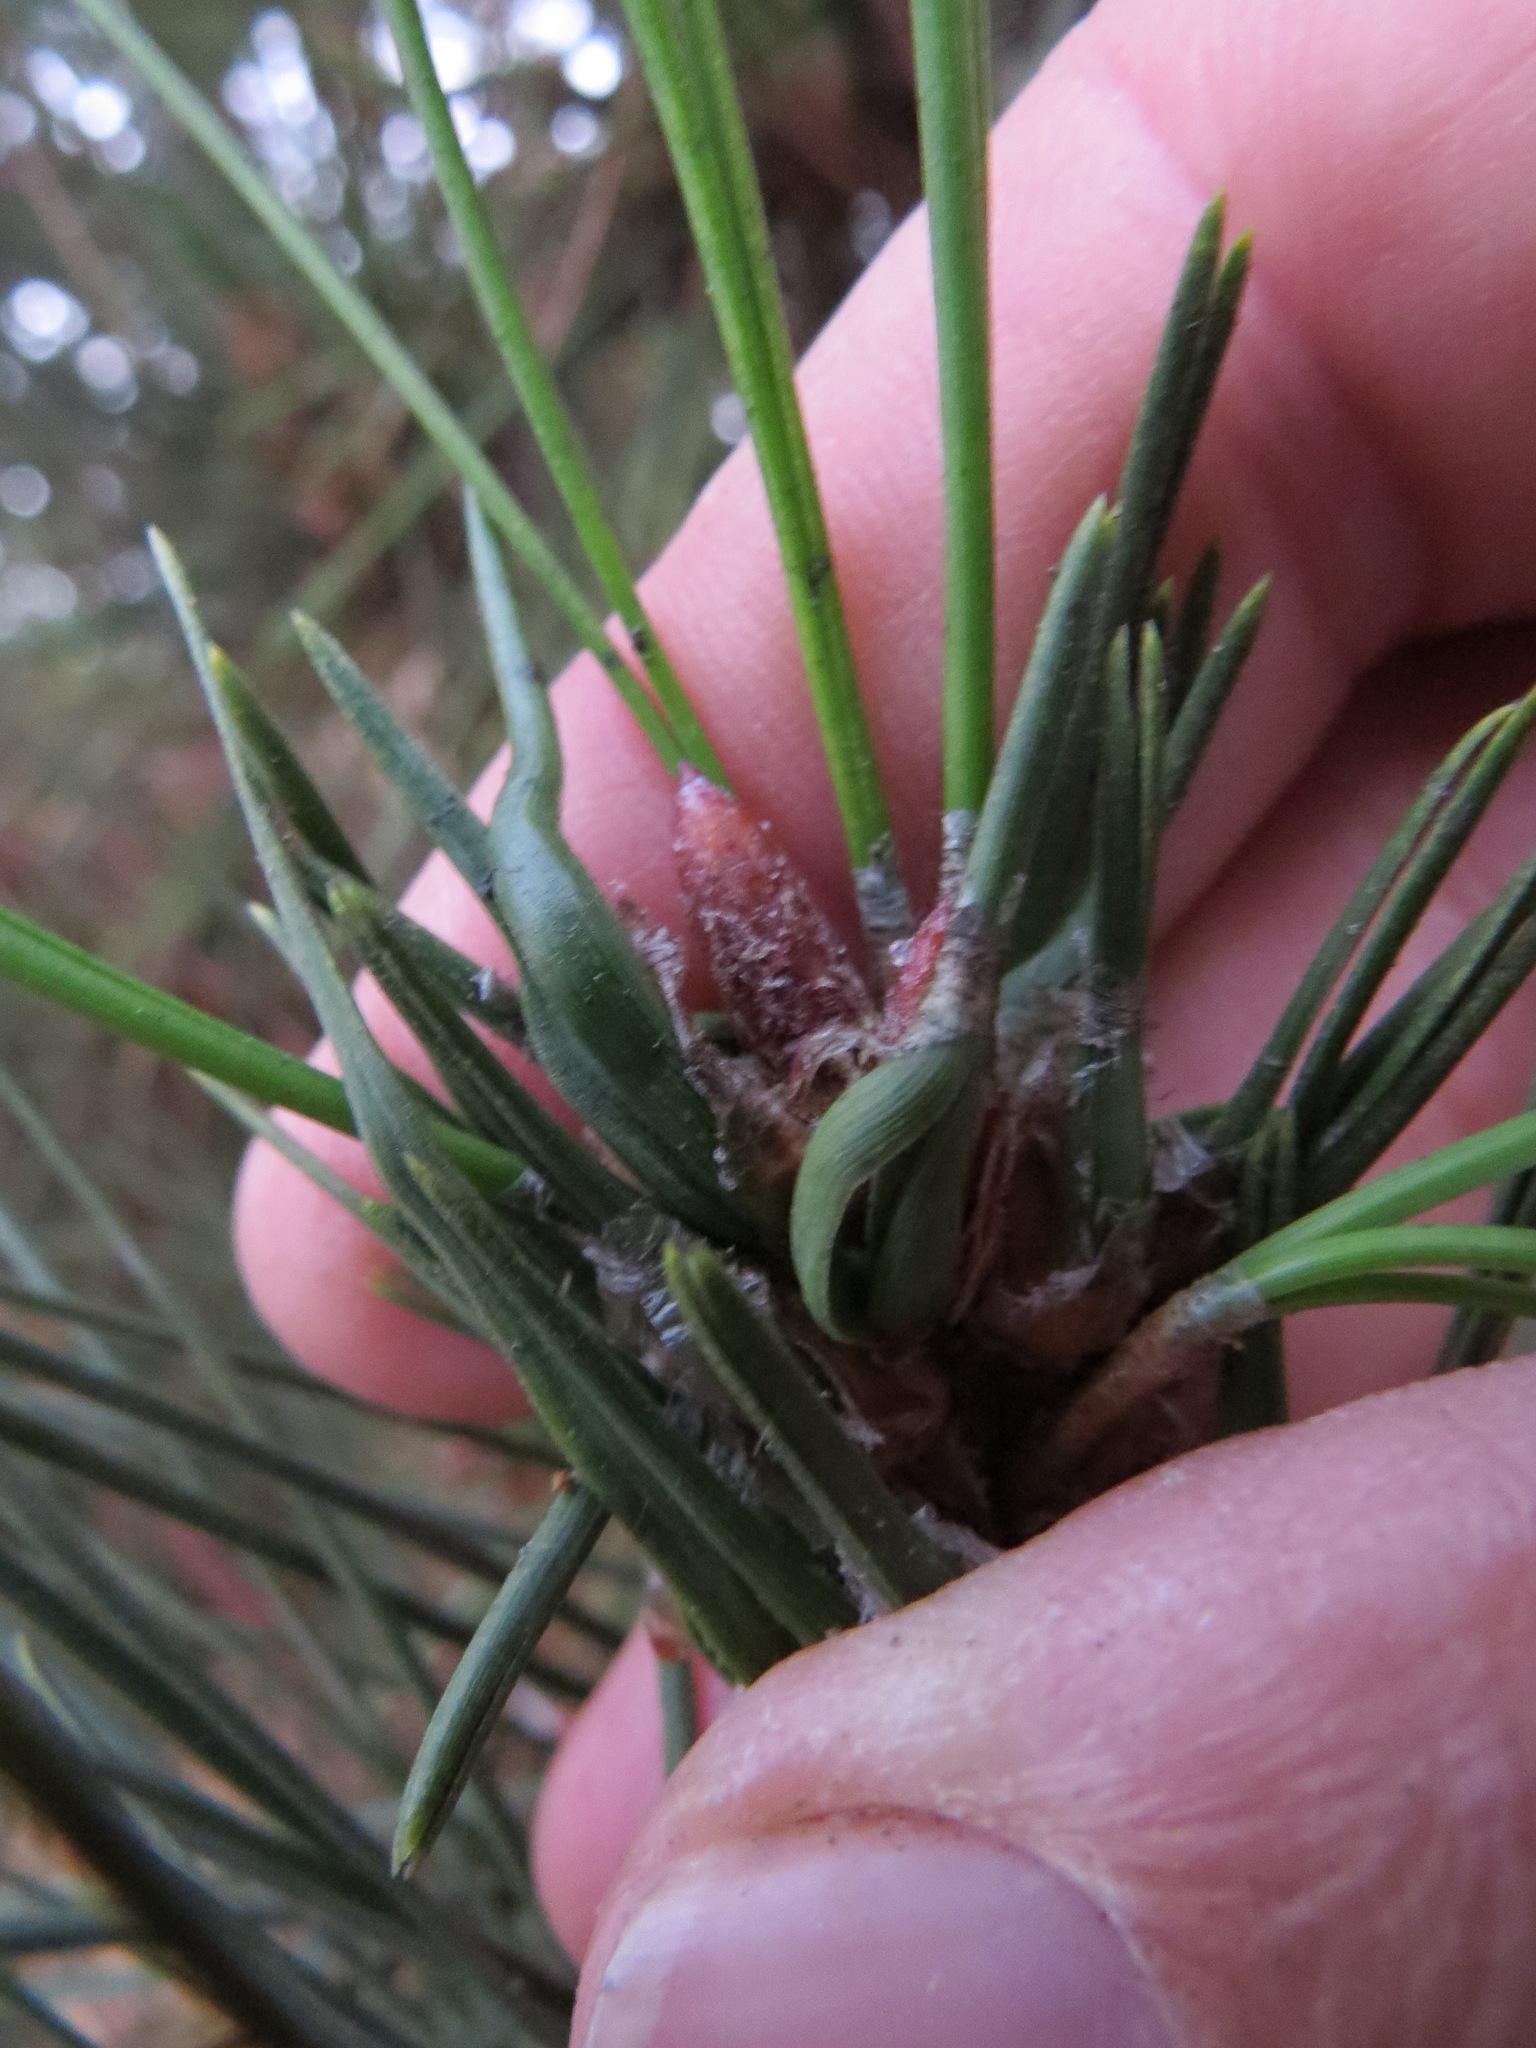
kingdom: Animalia
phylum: Arthropoda
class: Insecta
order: Diptera
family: Cecidomyiidae
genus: Thecodiplosis
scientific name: Thecodiplosis piniradiatae
